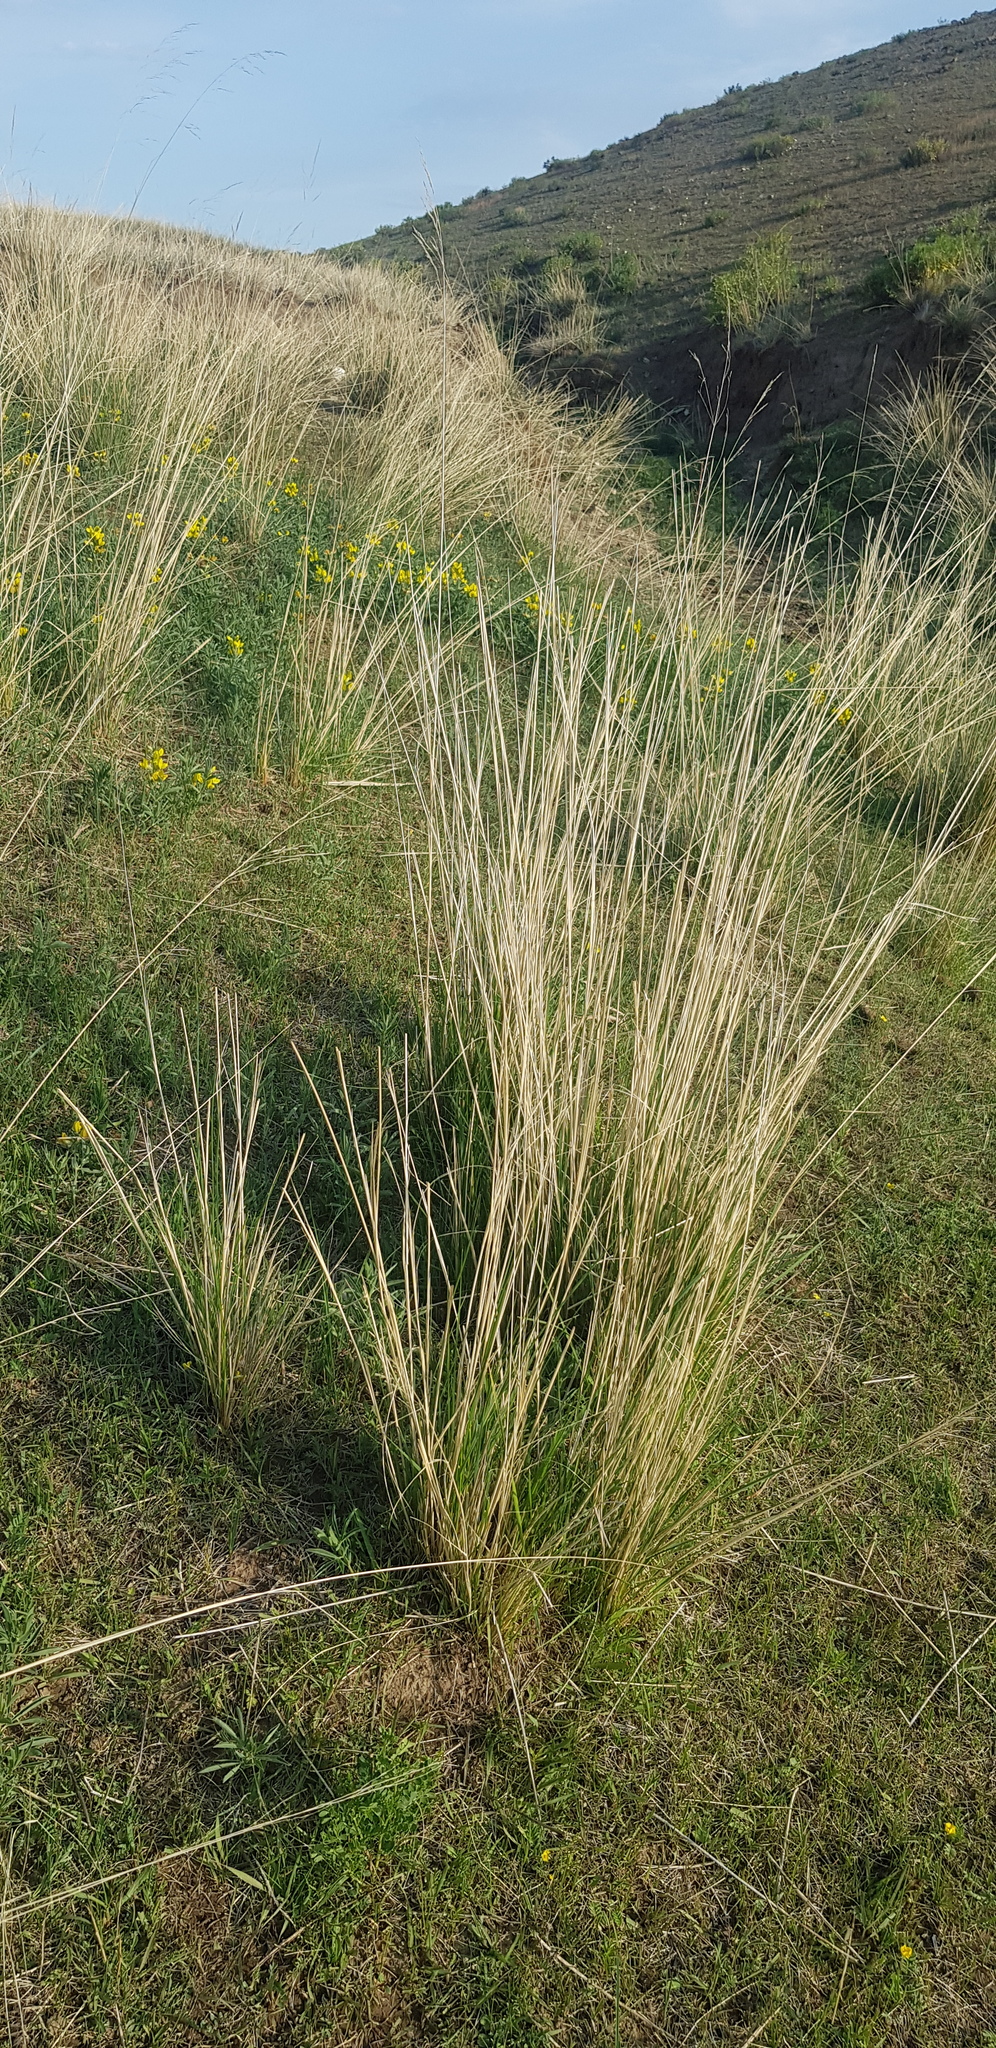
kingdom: Plantae
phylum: Tracheophyta
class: Liliopsida
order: Poales
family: Poaceae
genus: Neotrinia
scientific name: Neotrinia splendens
